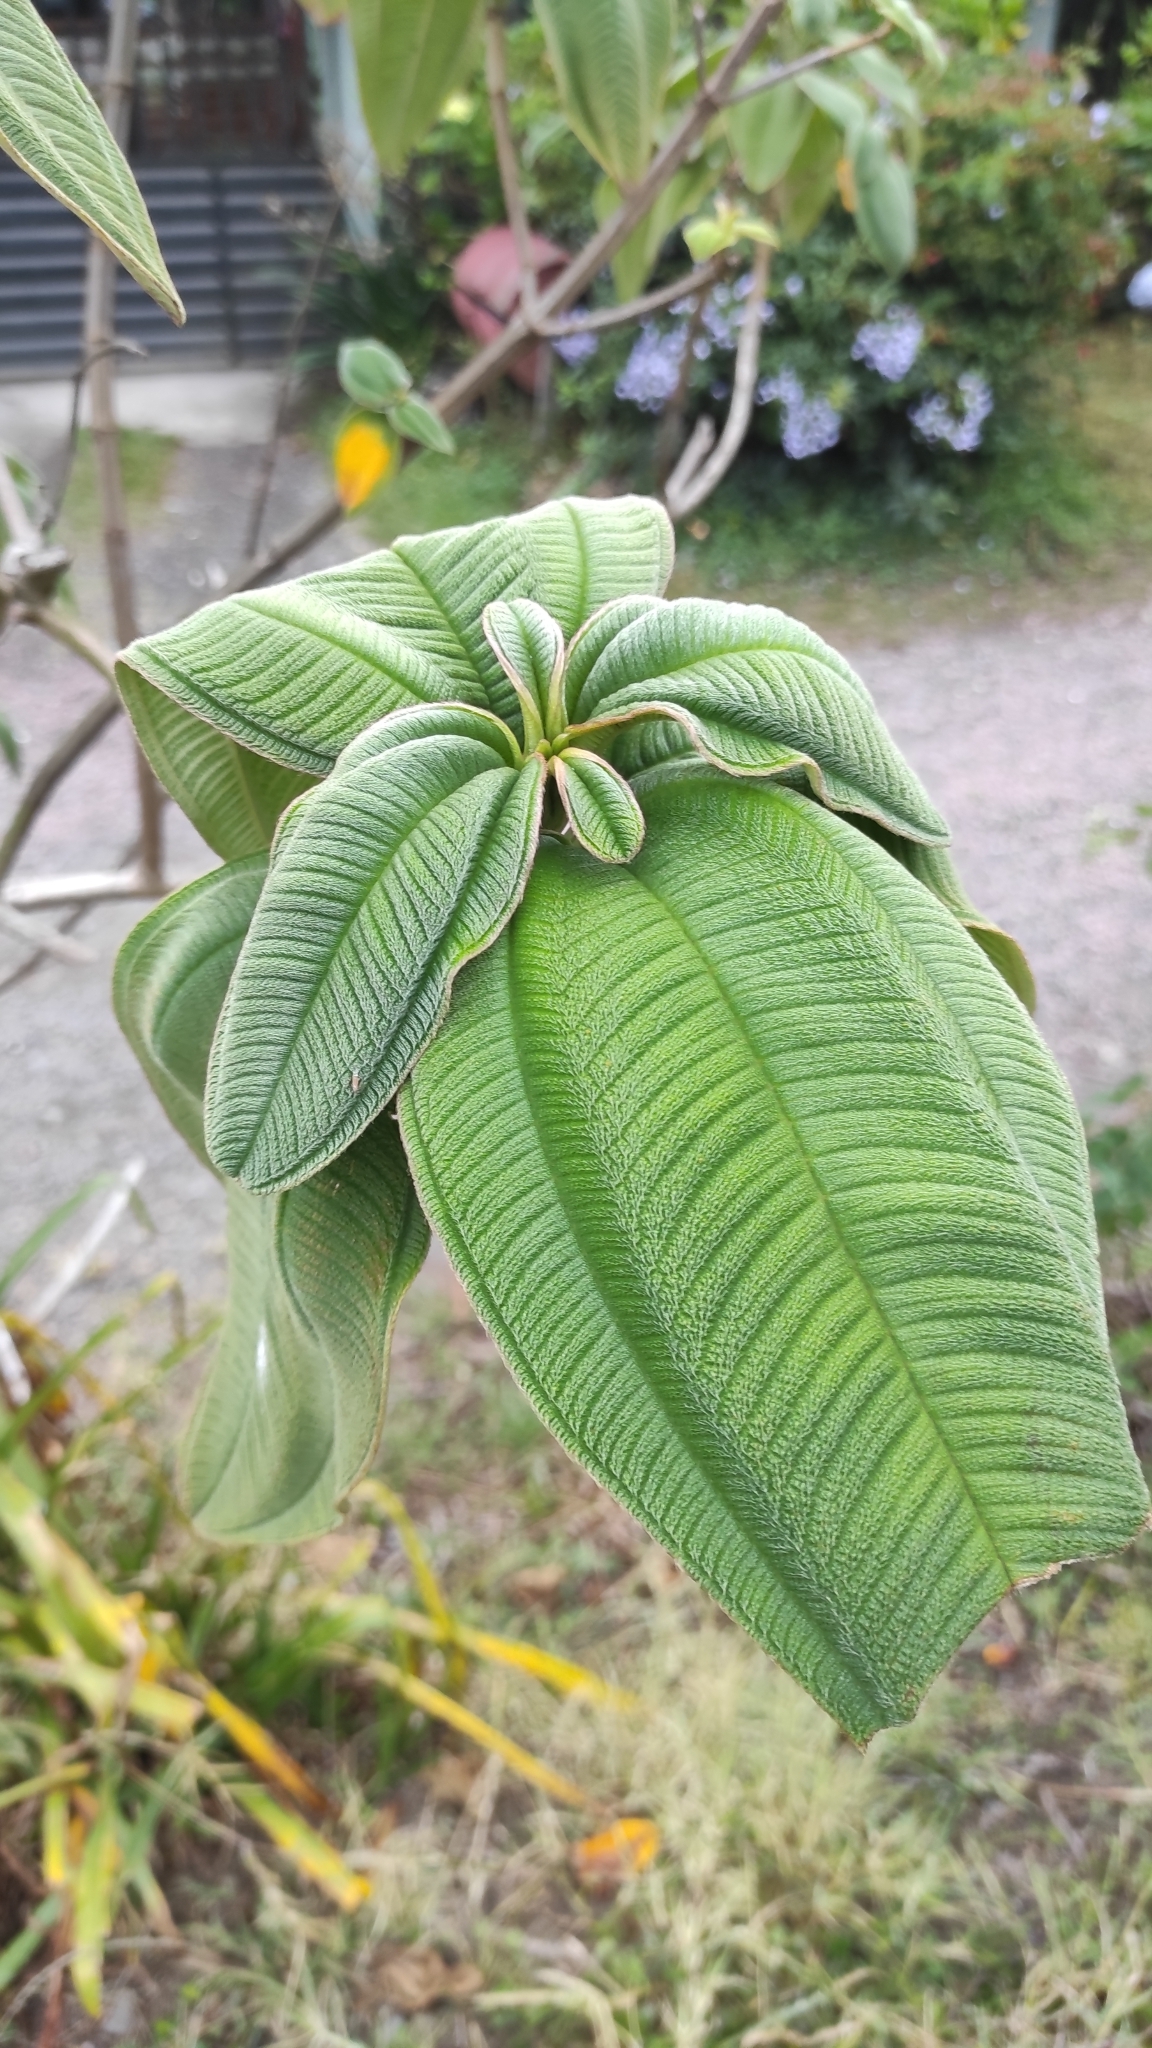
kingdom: Plantae
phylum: Tracheophyta
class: Magnoliopsida
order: Myrtales
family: Melastomataceae
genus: Pleroma
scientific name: Pleroma heteromallum
